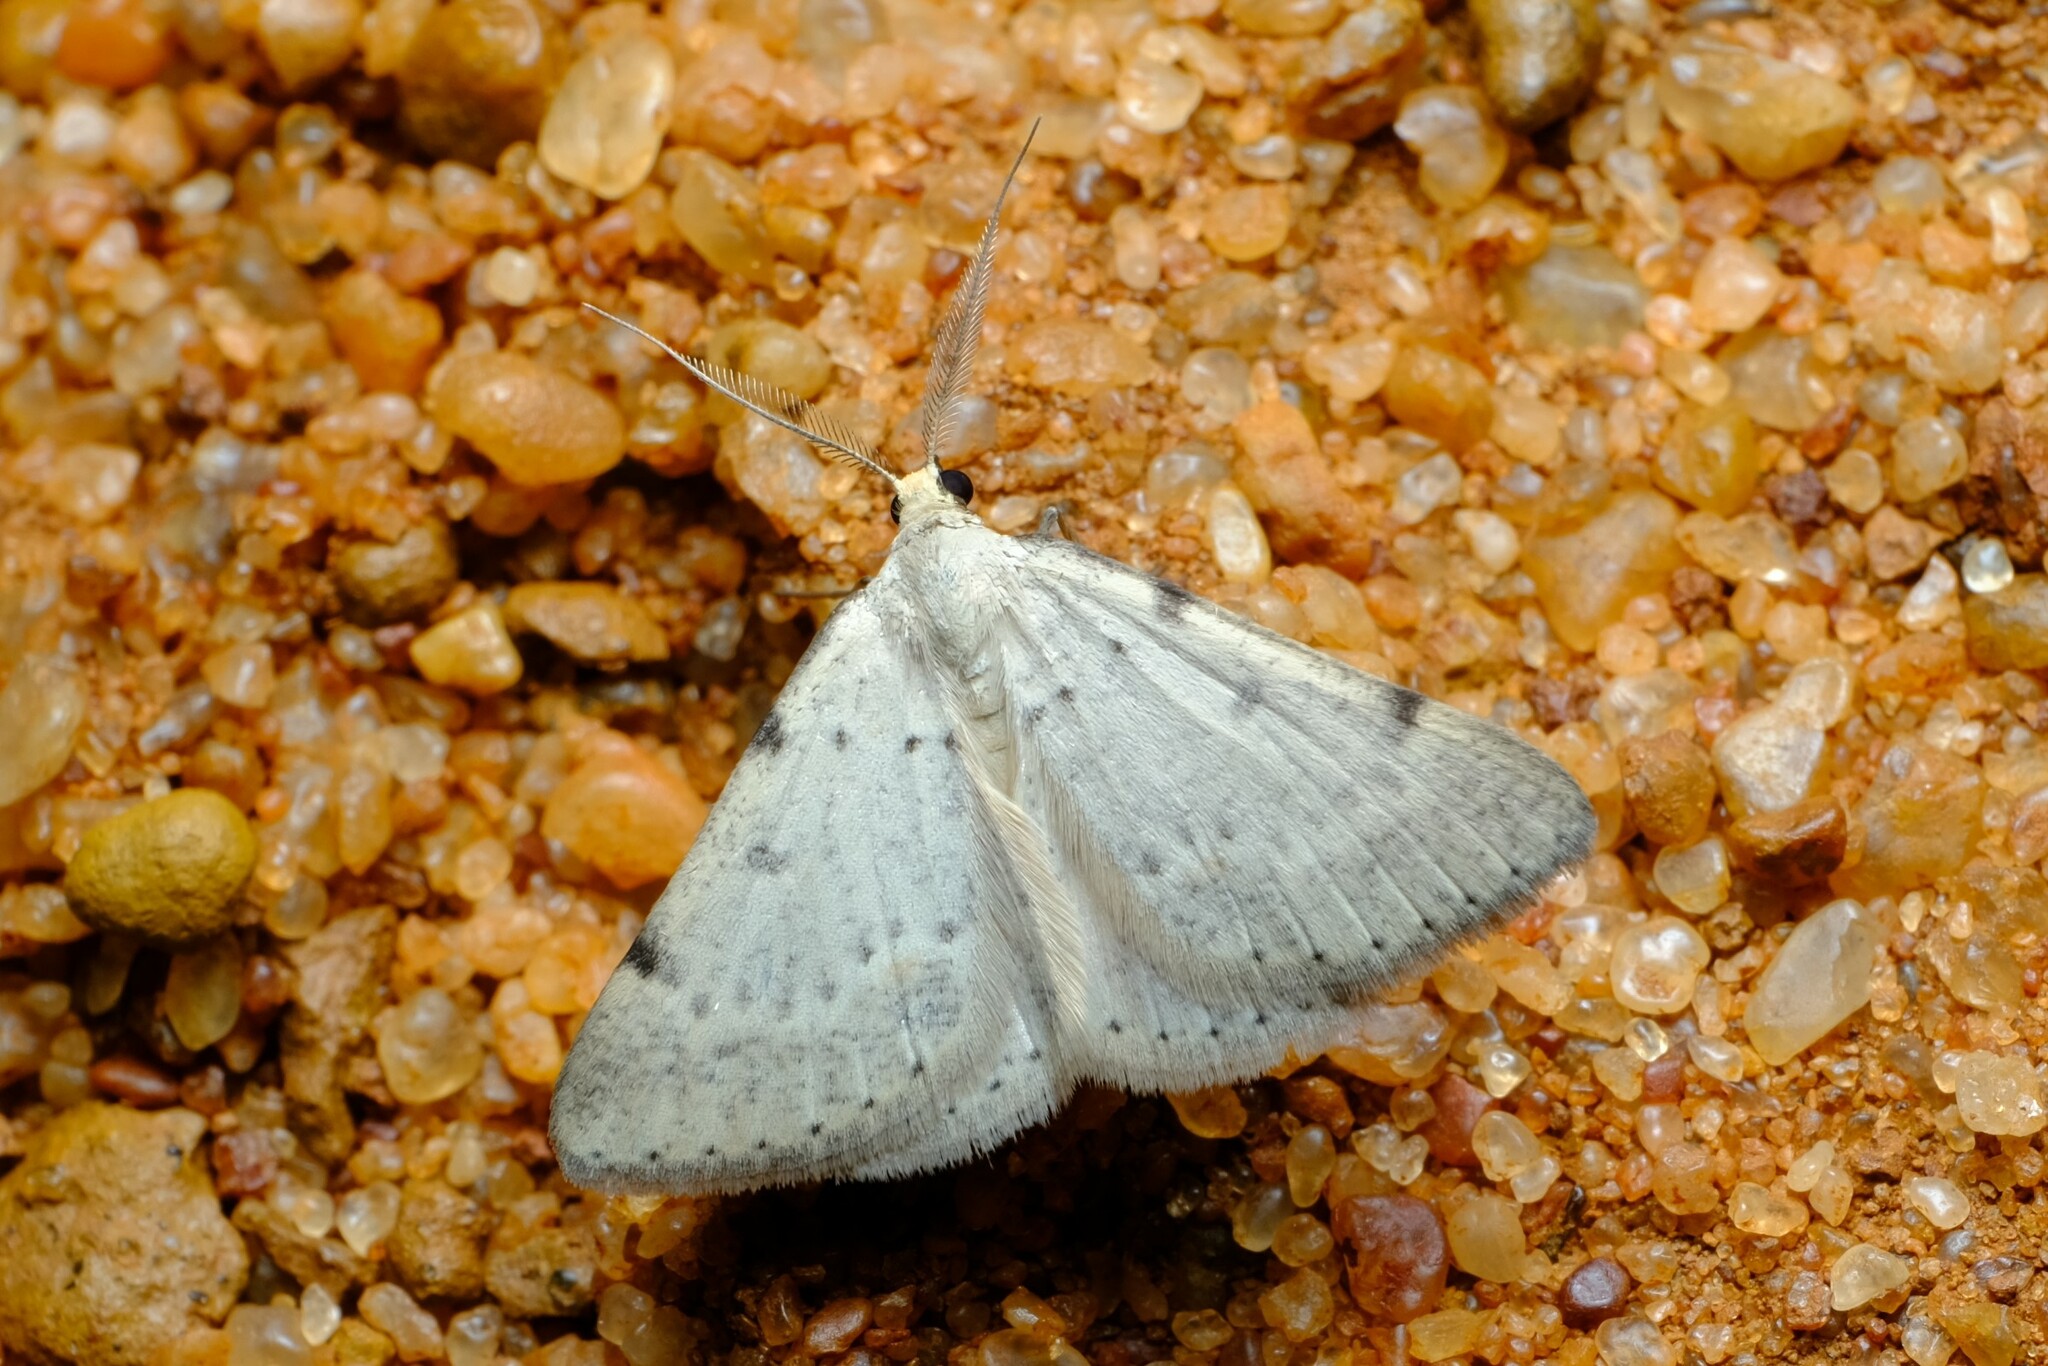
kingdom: Animalia
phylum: Arthropoda
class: Insecta
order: Lepidoptera
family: Geometridae
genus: Nearcha
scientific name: Nearcha staurotis
